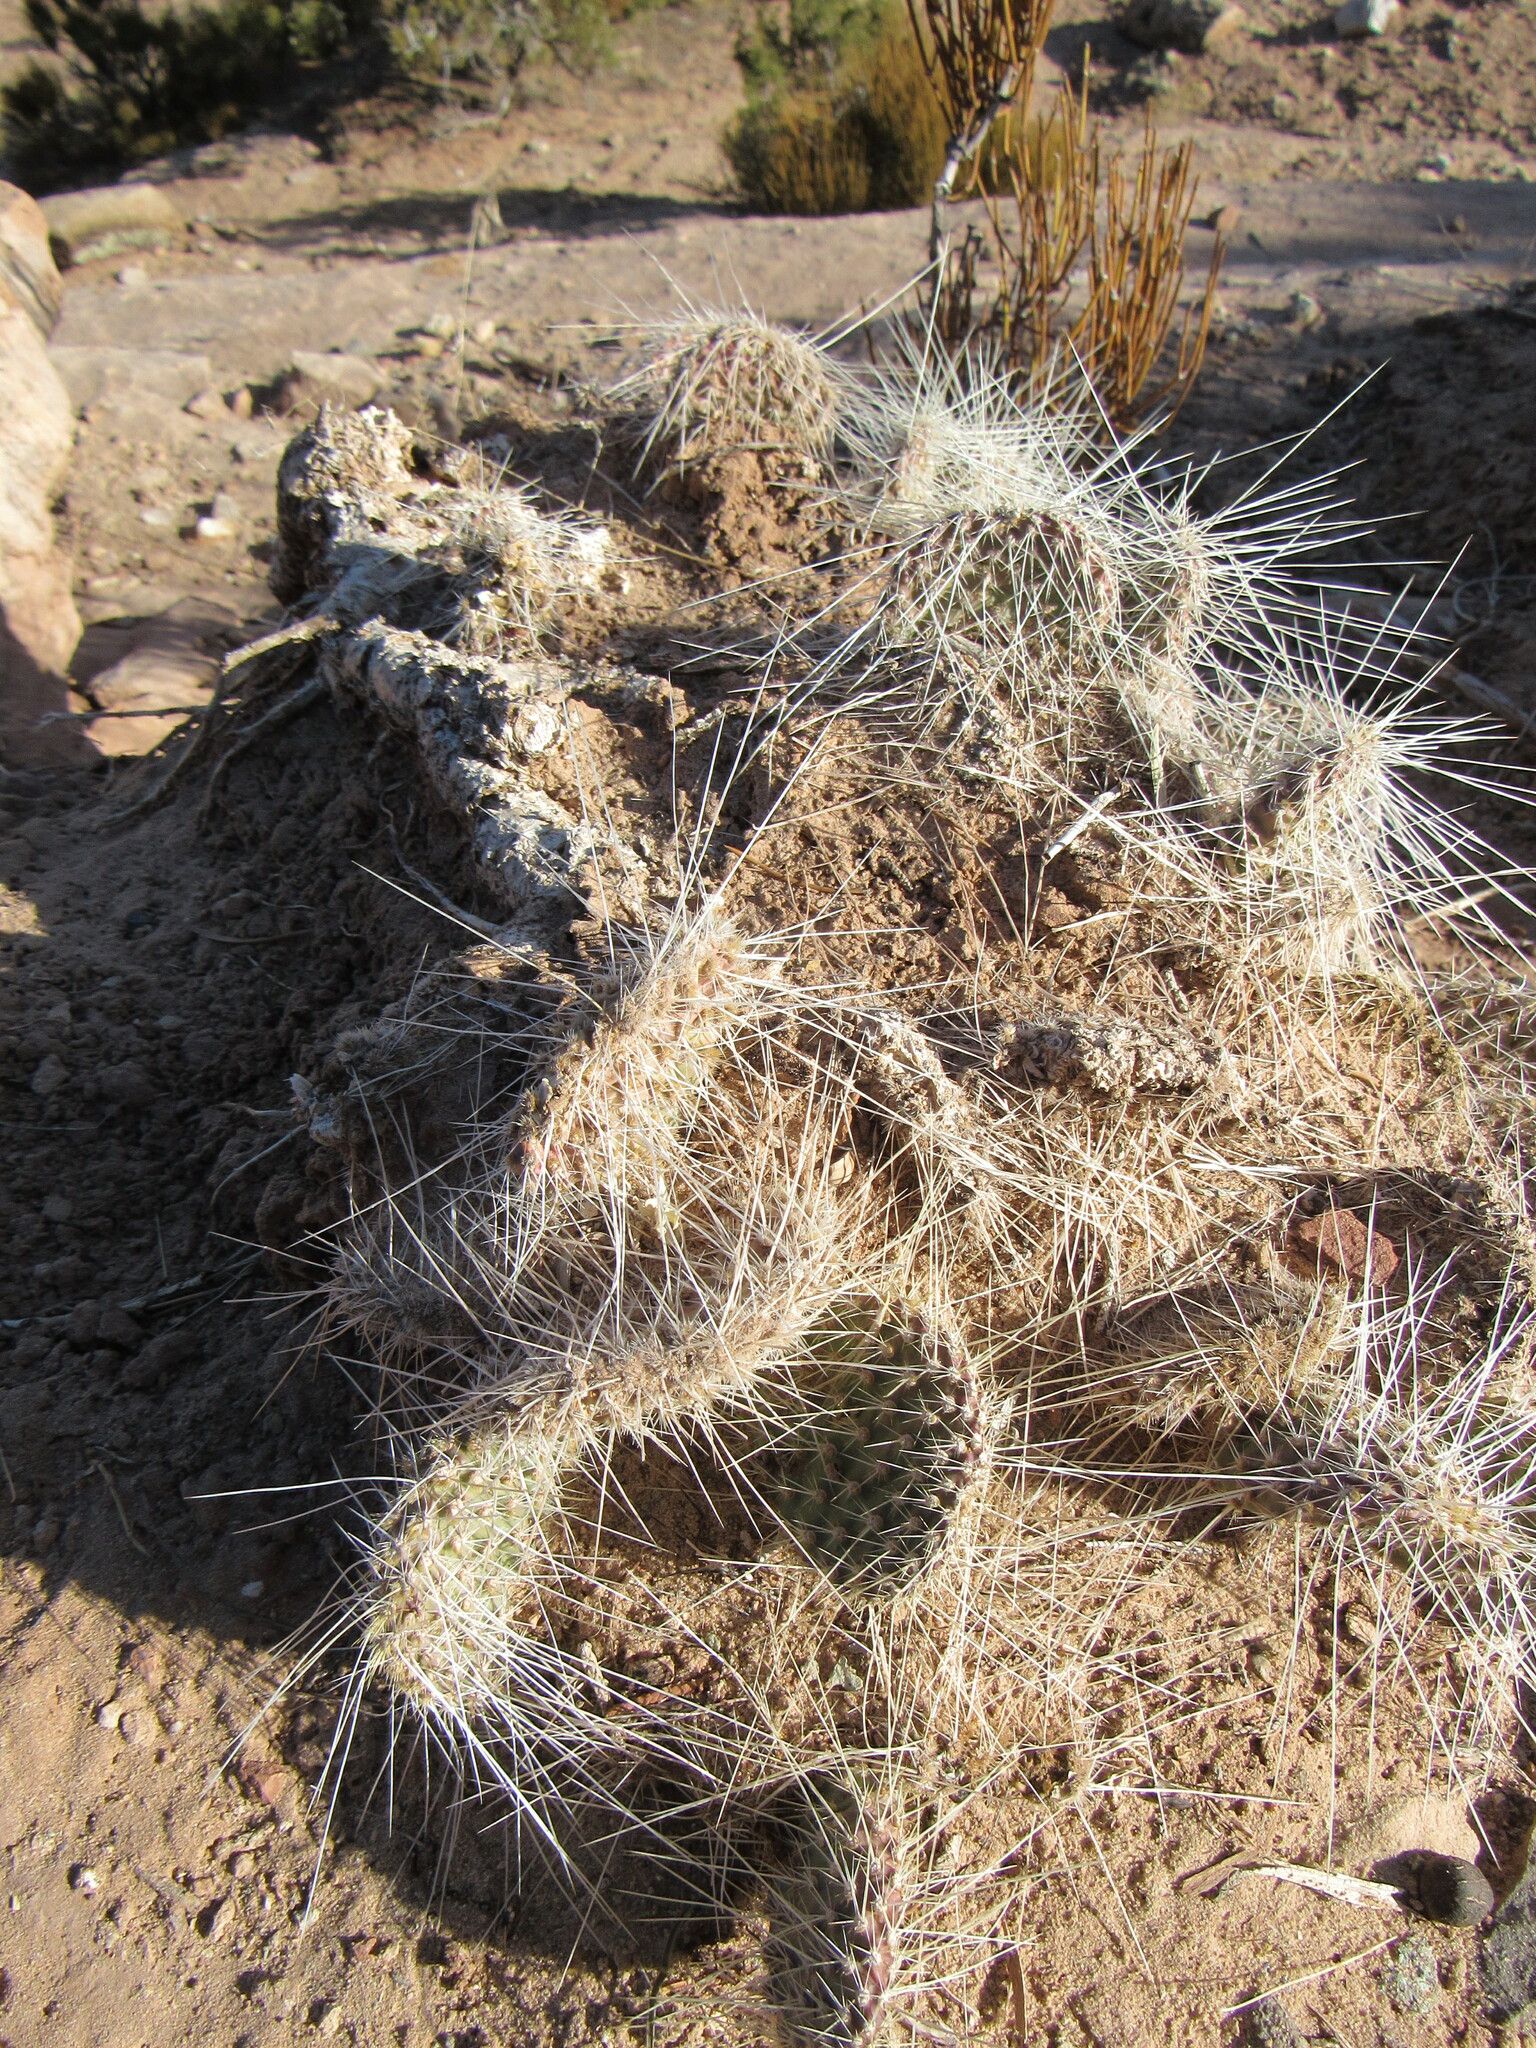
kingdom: Plantae
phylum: Tracheophyta
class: Magnoliopsida
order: Caryophyllales
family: Cactaceae
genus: Opuntia
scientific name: Opuntia polyacantha
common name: Plains prickly-pear
